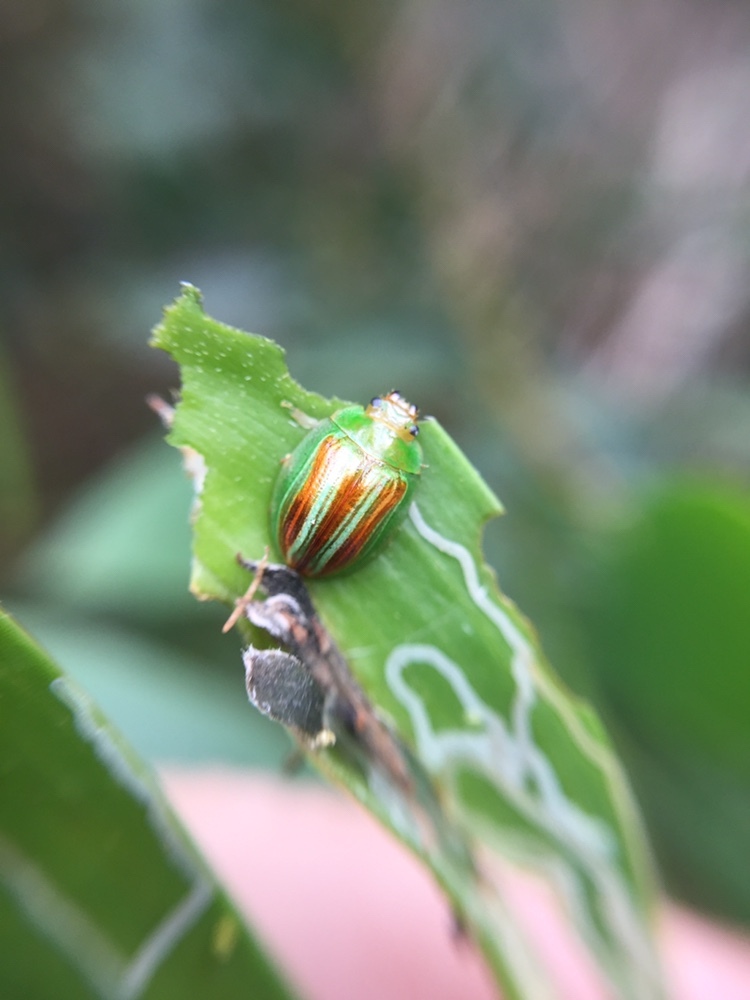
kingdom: Animalia
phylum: Arthropoda
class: Insecta
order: Coleoptera
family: Chrysomelidae
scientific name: Chrysomelidae
